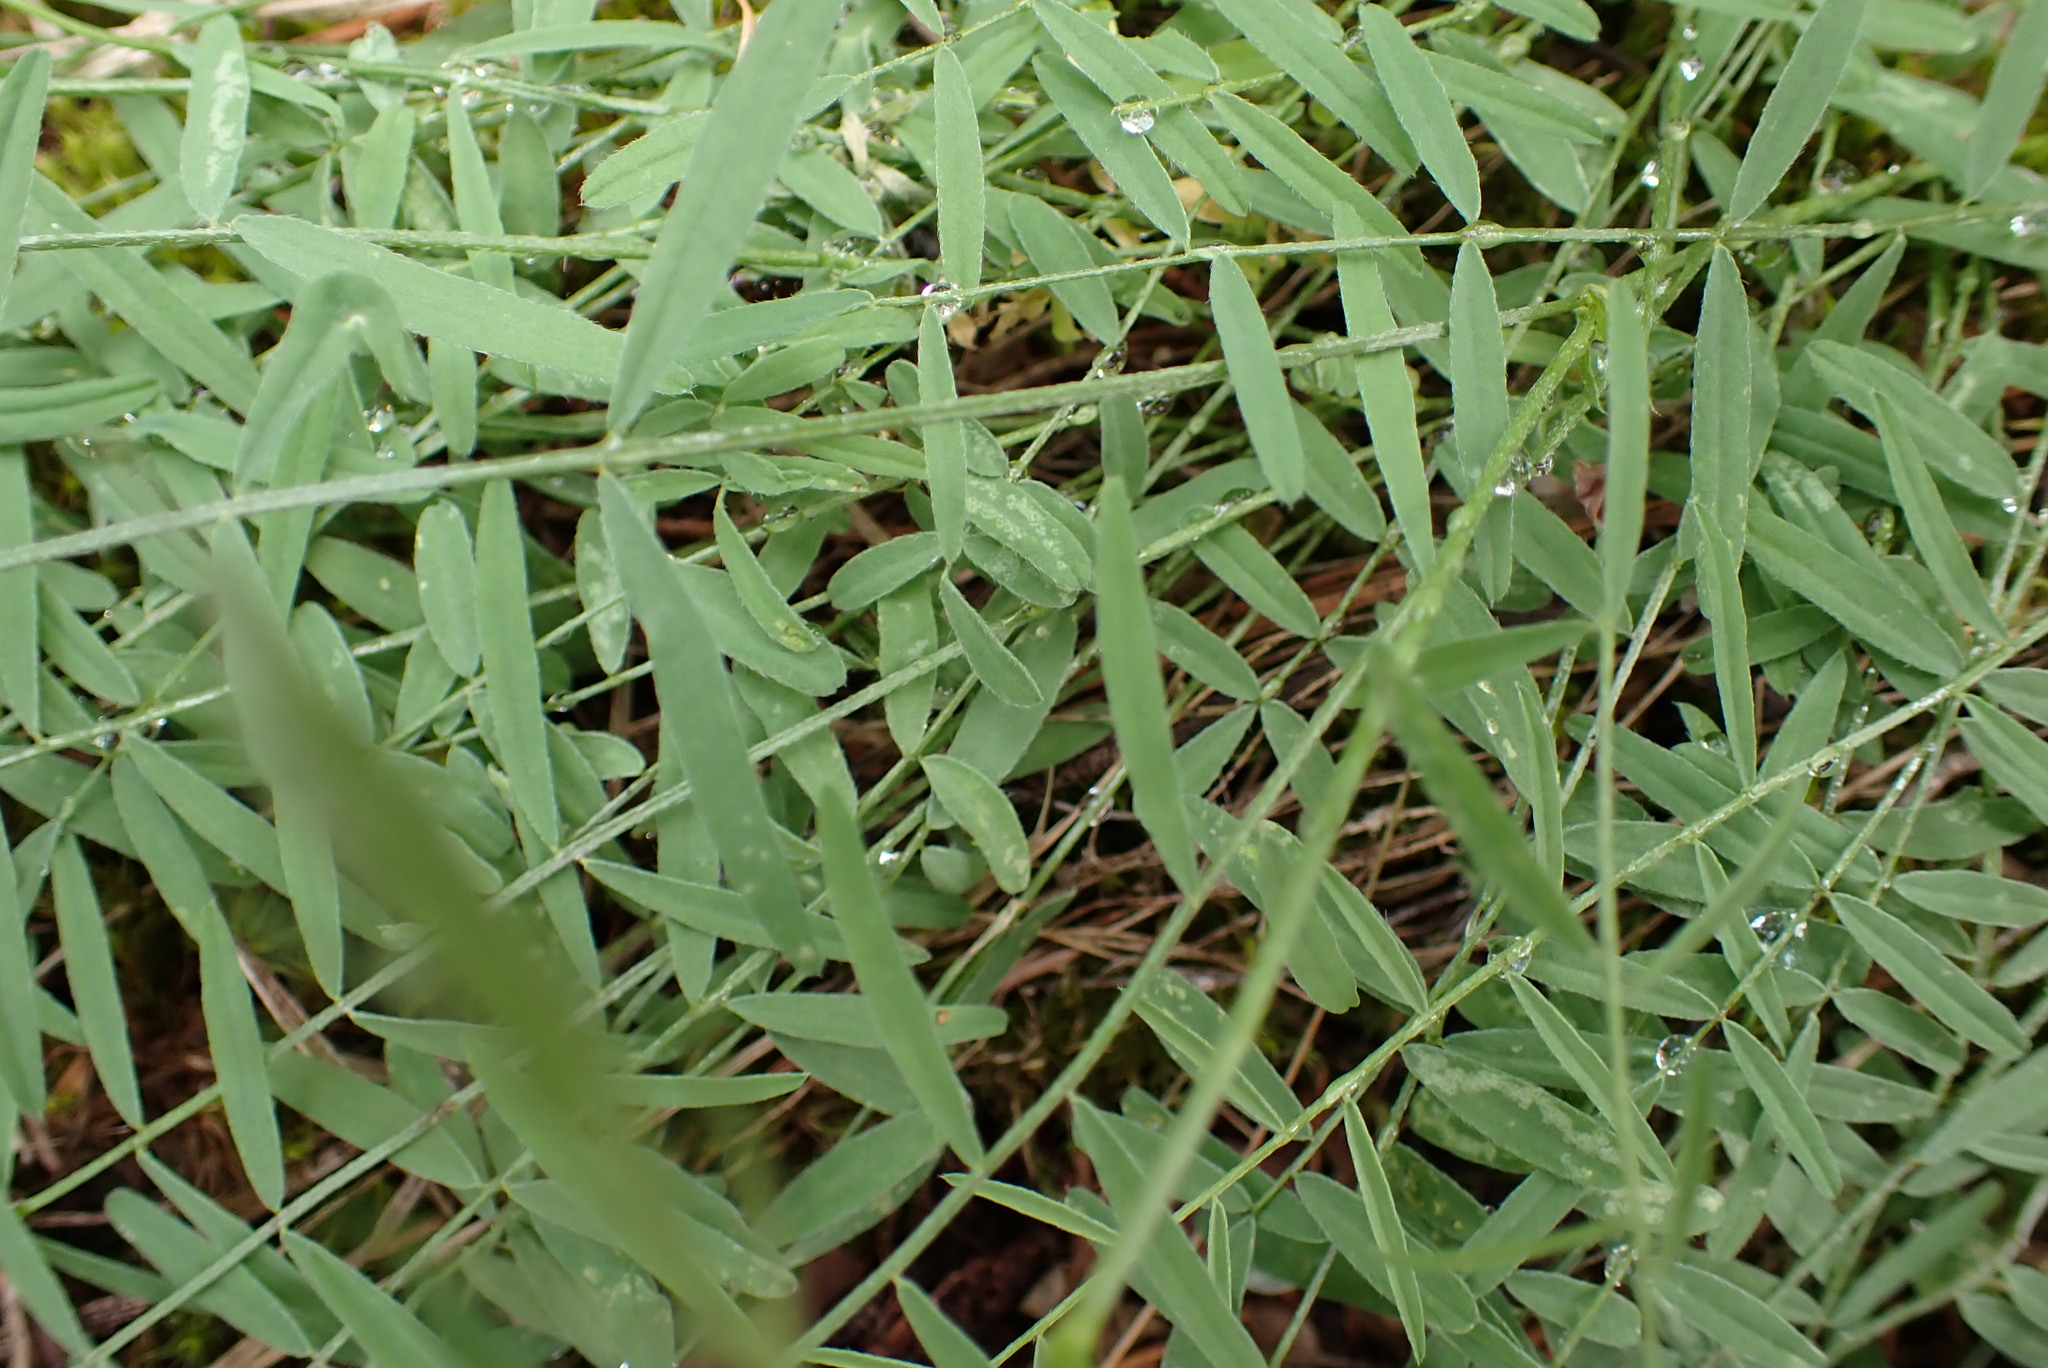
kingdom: Plantae
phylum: Tracheophyta
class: Magnoliopsida
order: Fabales
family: Fabaceae
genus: Astragalus
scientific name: Astragalus miser
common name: Timber milkvetch
